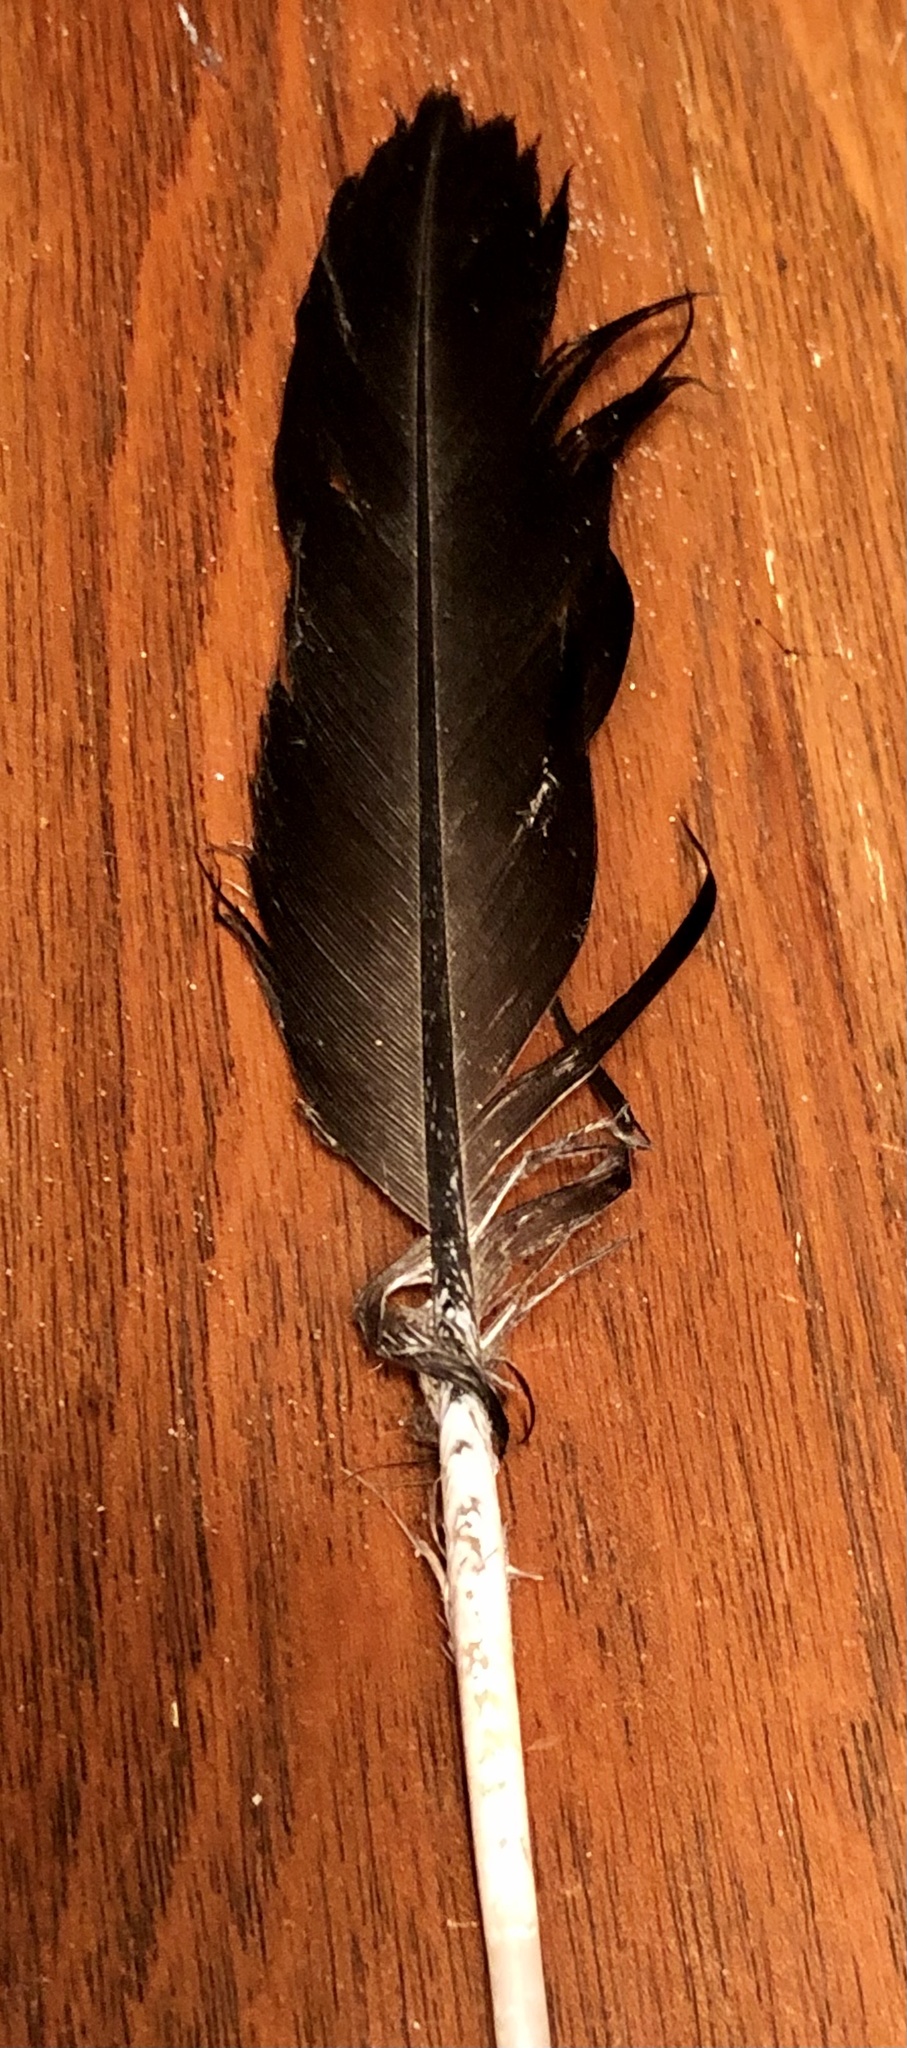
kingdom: Animalia
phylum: Chordata
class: Aves
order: Anseriformes
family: Anatidae
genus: Branta
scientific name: Branta canadensis
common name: Canada goose
